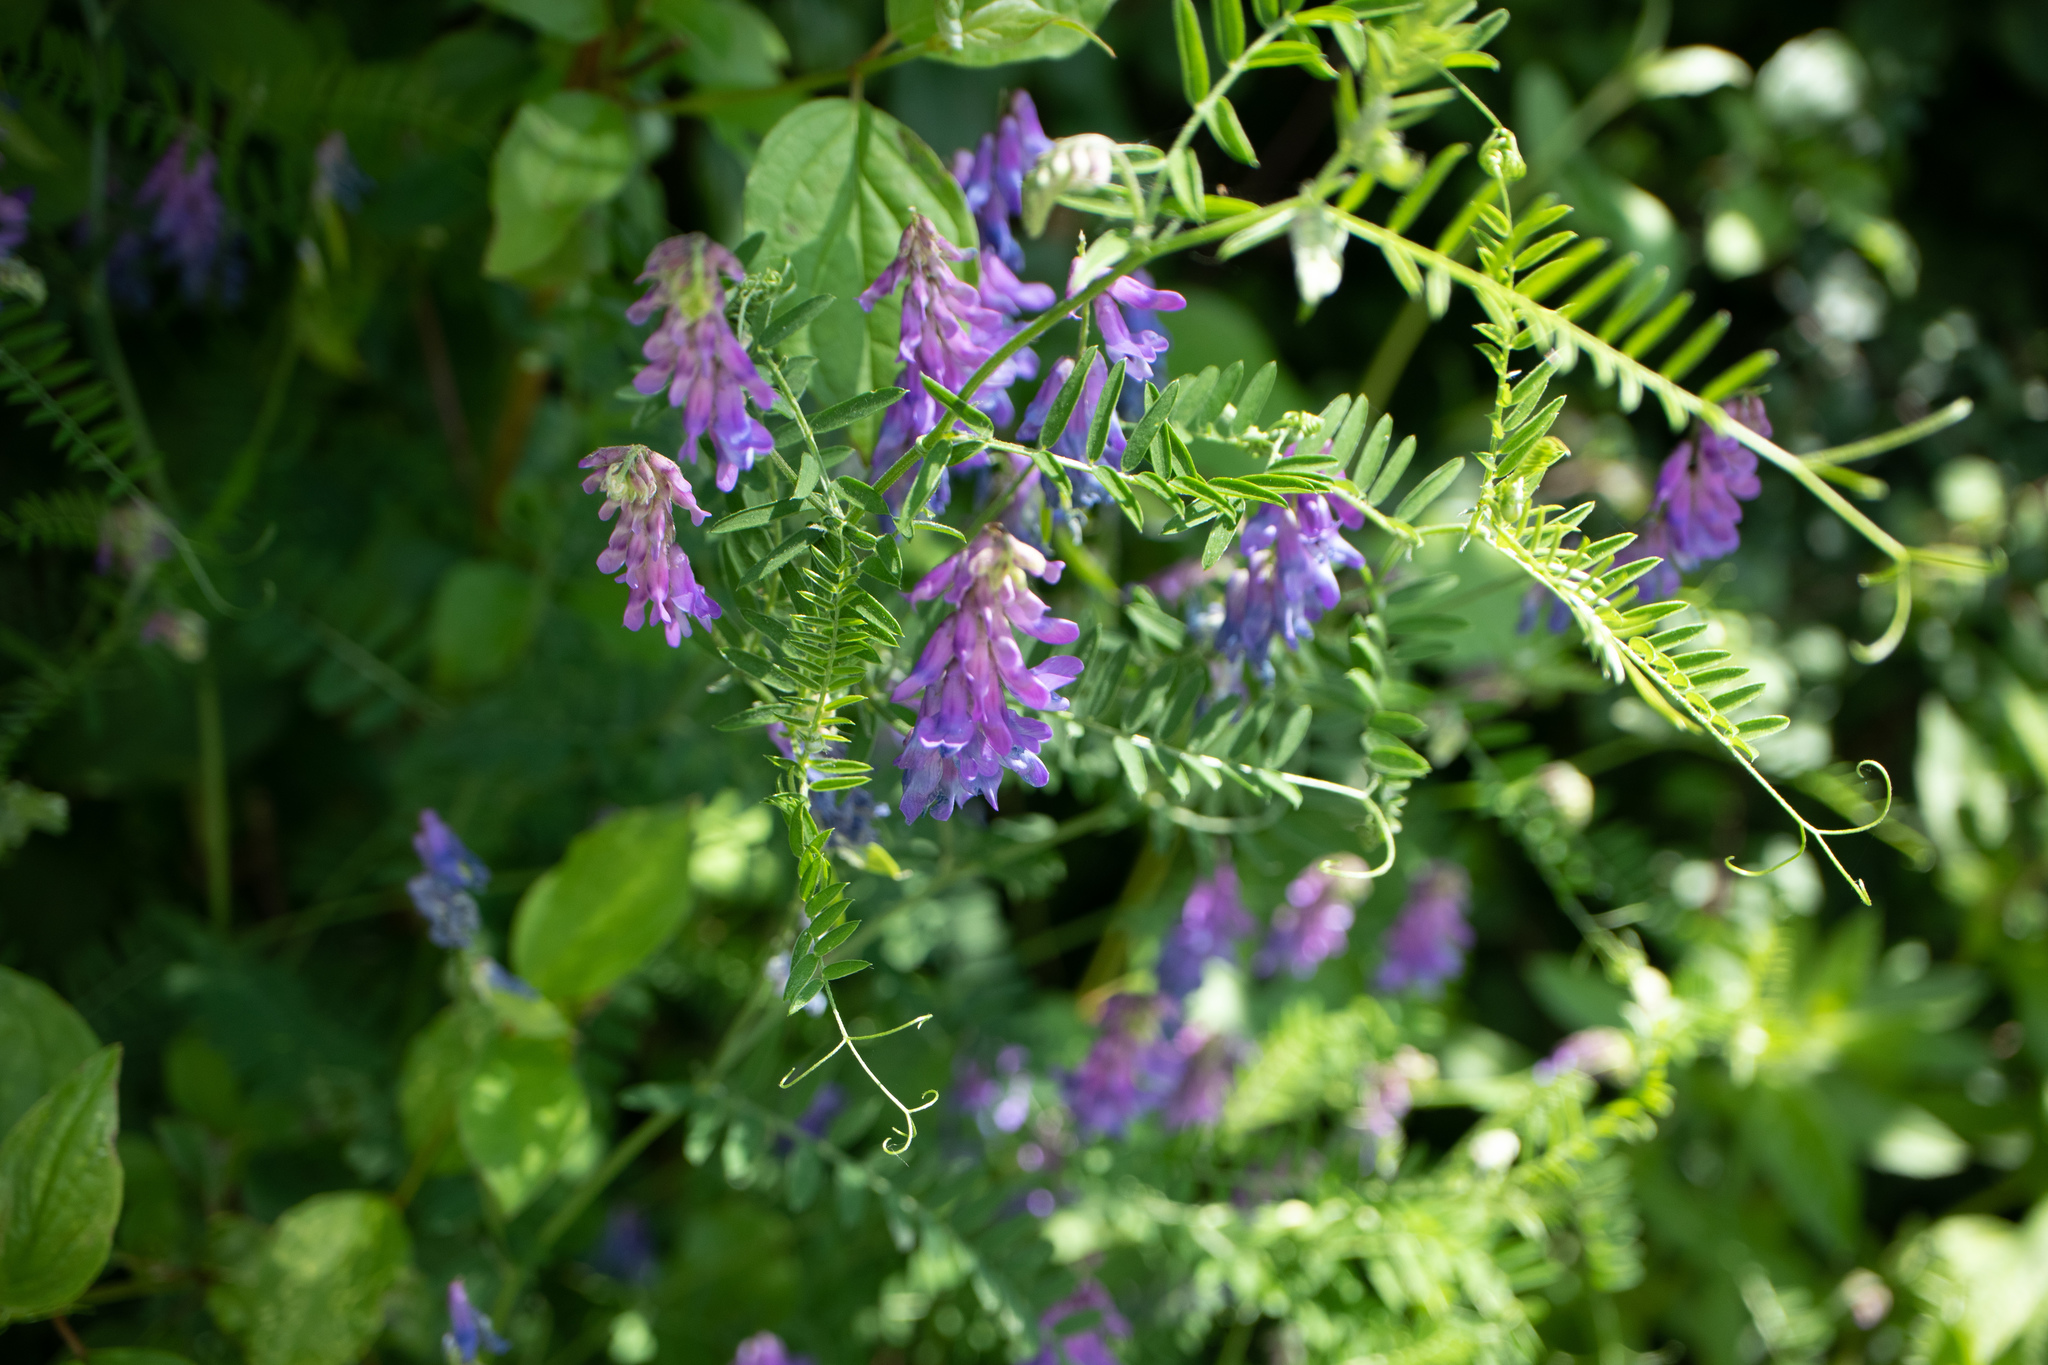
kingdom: Plantae
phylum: Tracheophyta
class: Magnoliopsida
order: Fabales
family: Fabaceae
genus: Vicia
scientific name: Vicia cracca
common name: Bird vetch
